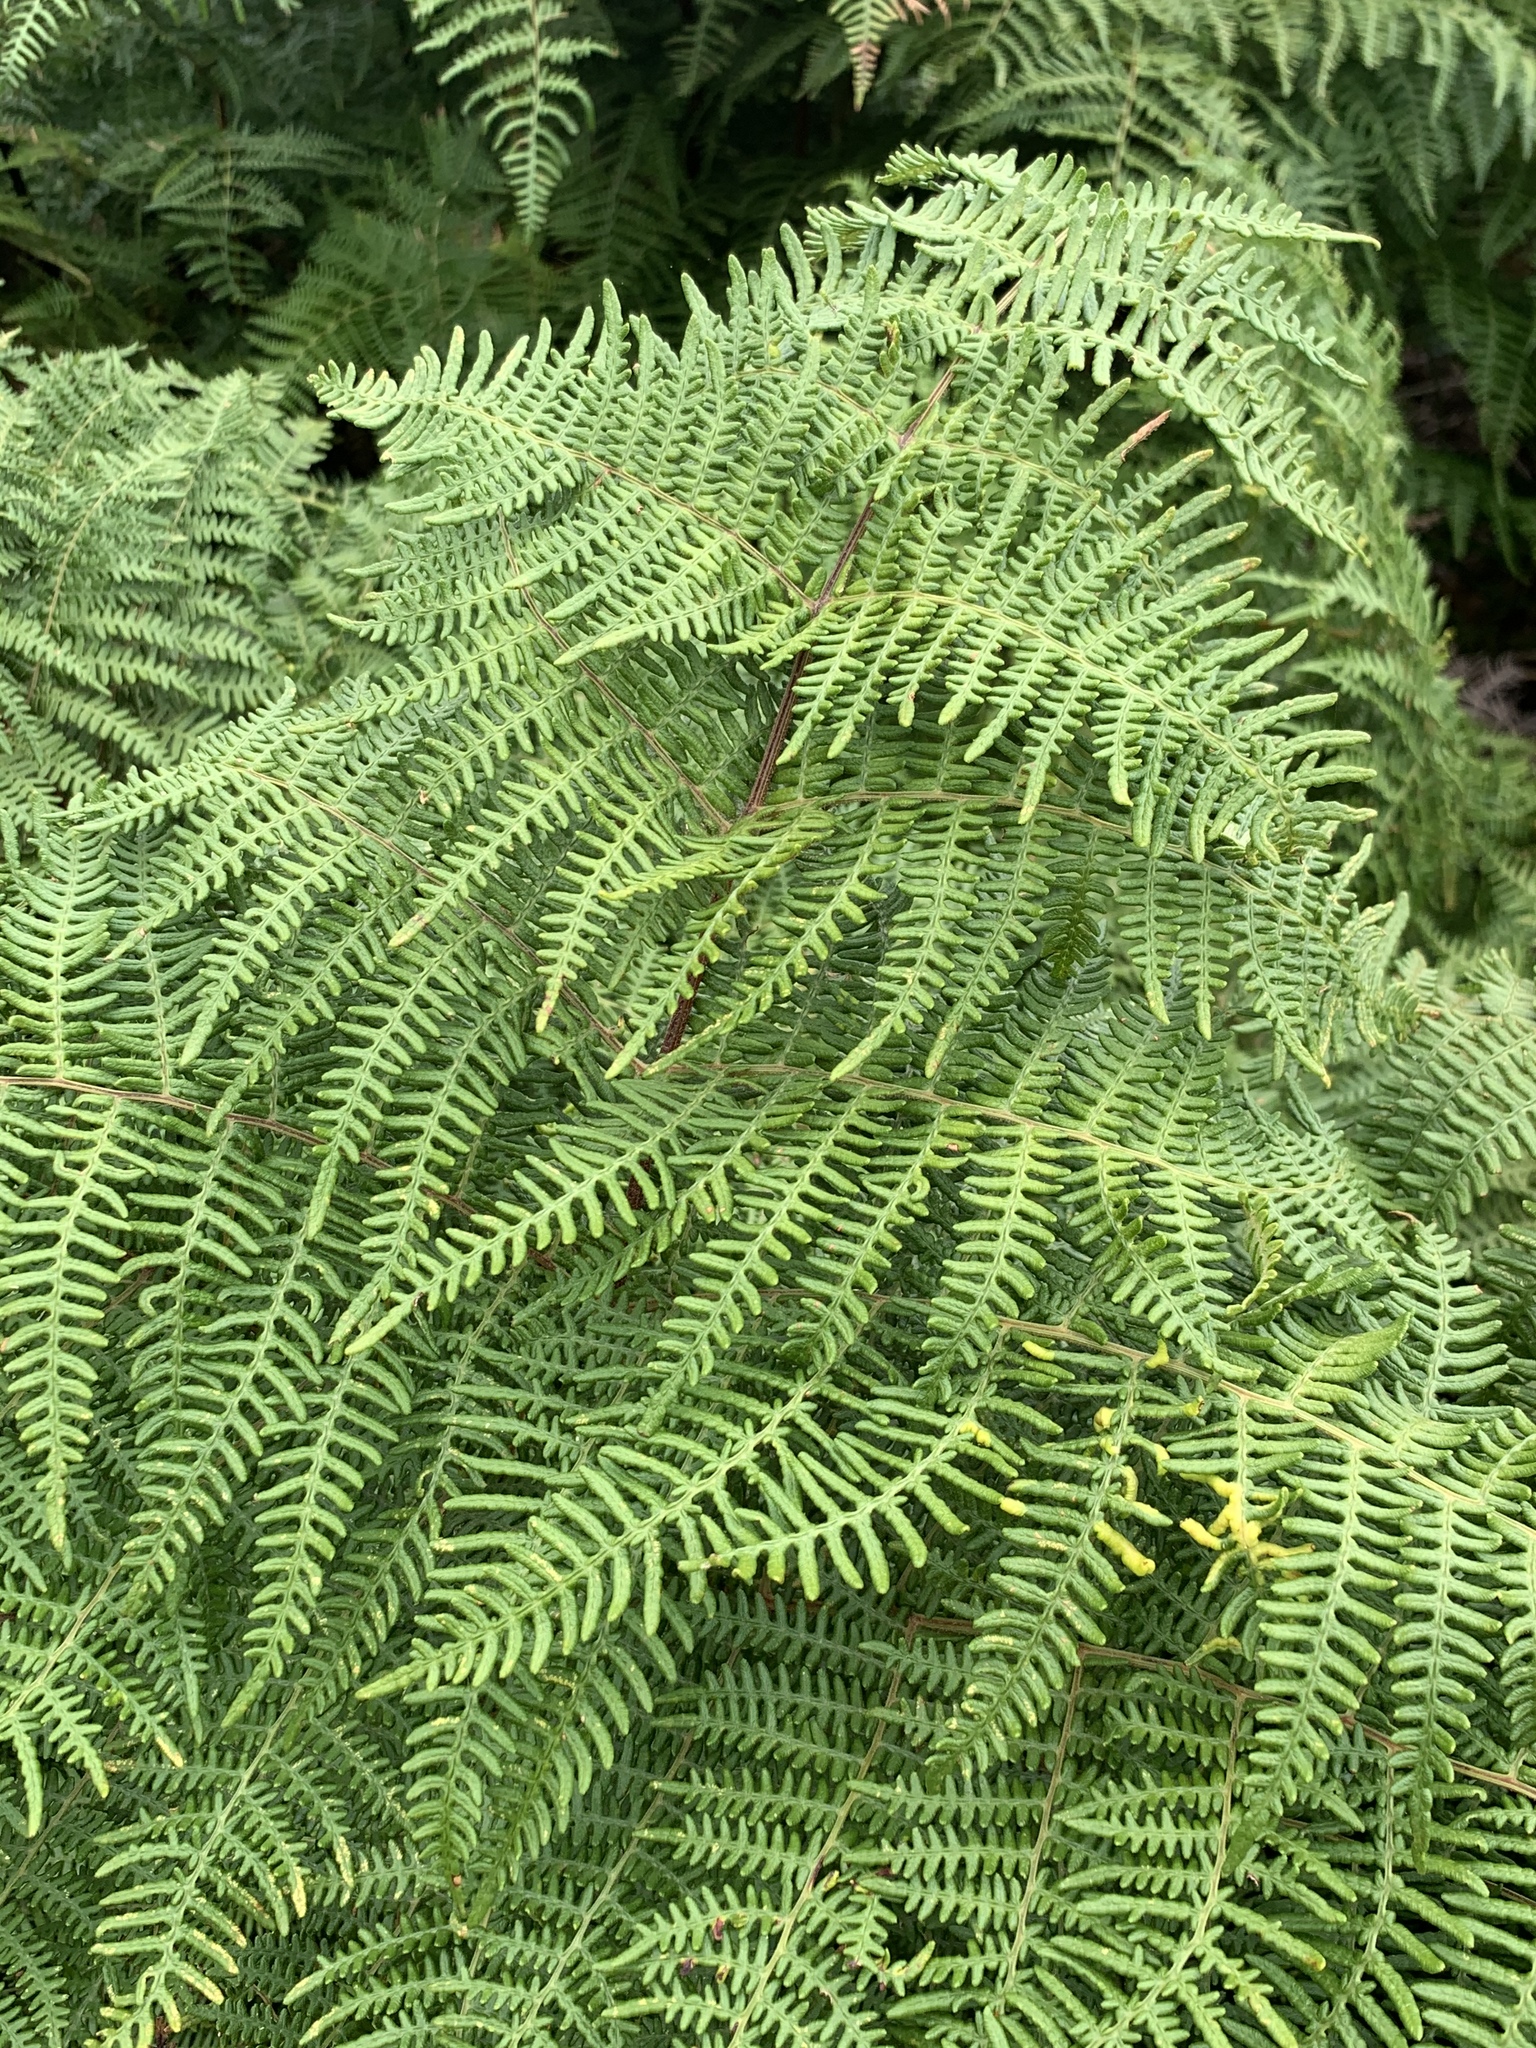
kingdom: Plantae
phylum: Tracheophyta
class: Polypodiopsida
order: Polypodiales
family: Dennstaedtiaceae
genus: Pteridium
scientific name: Pteridium aquilinum
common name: Bracken
